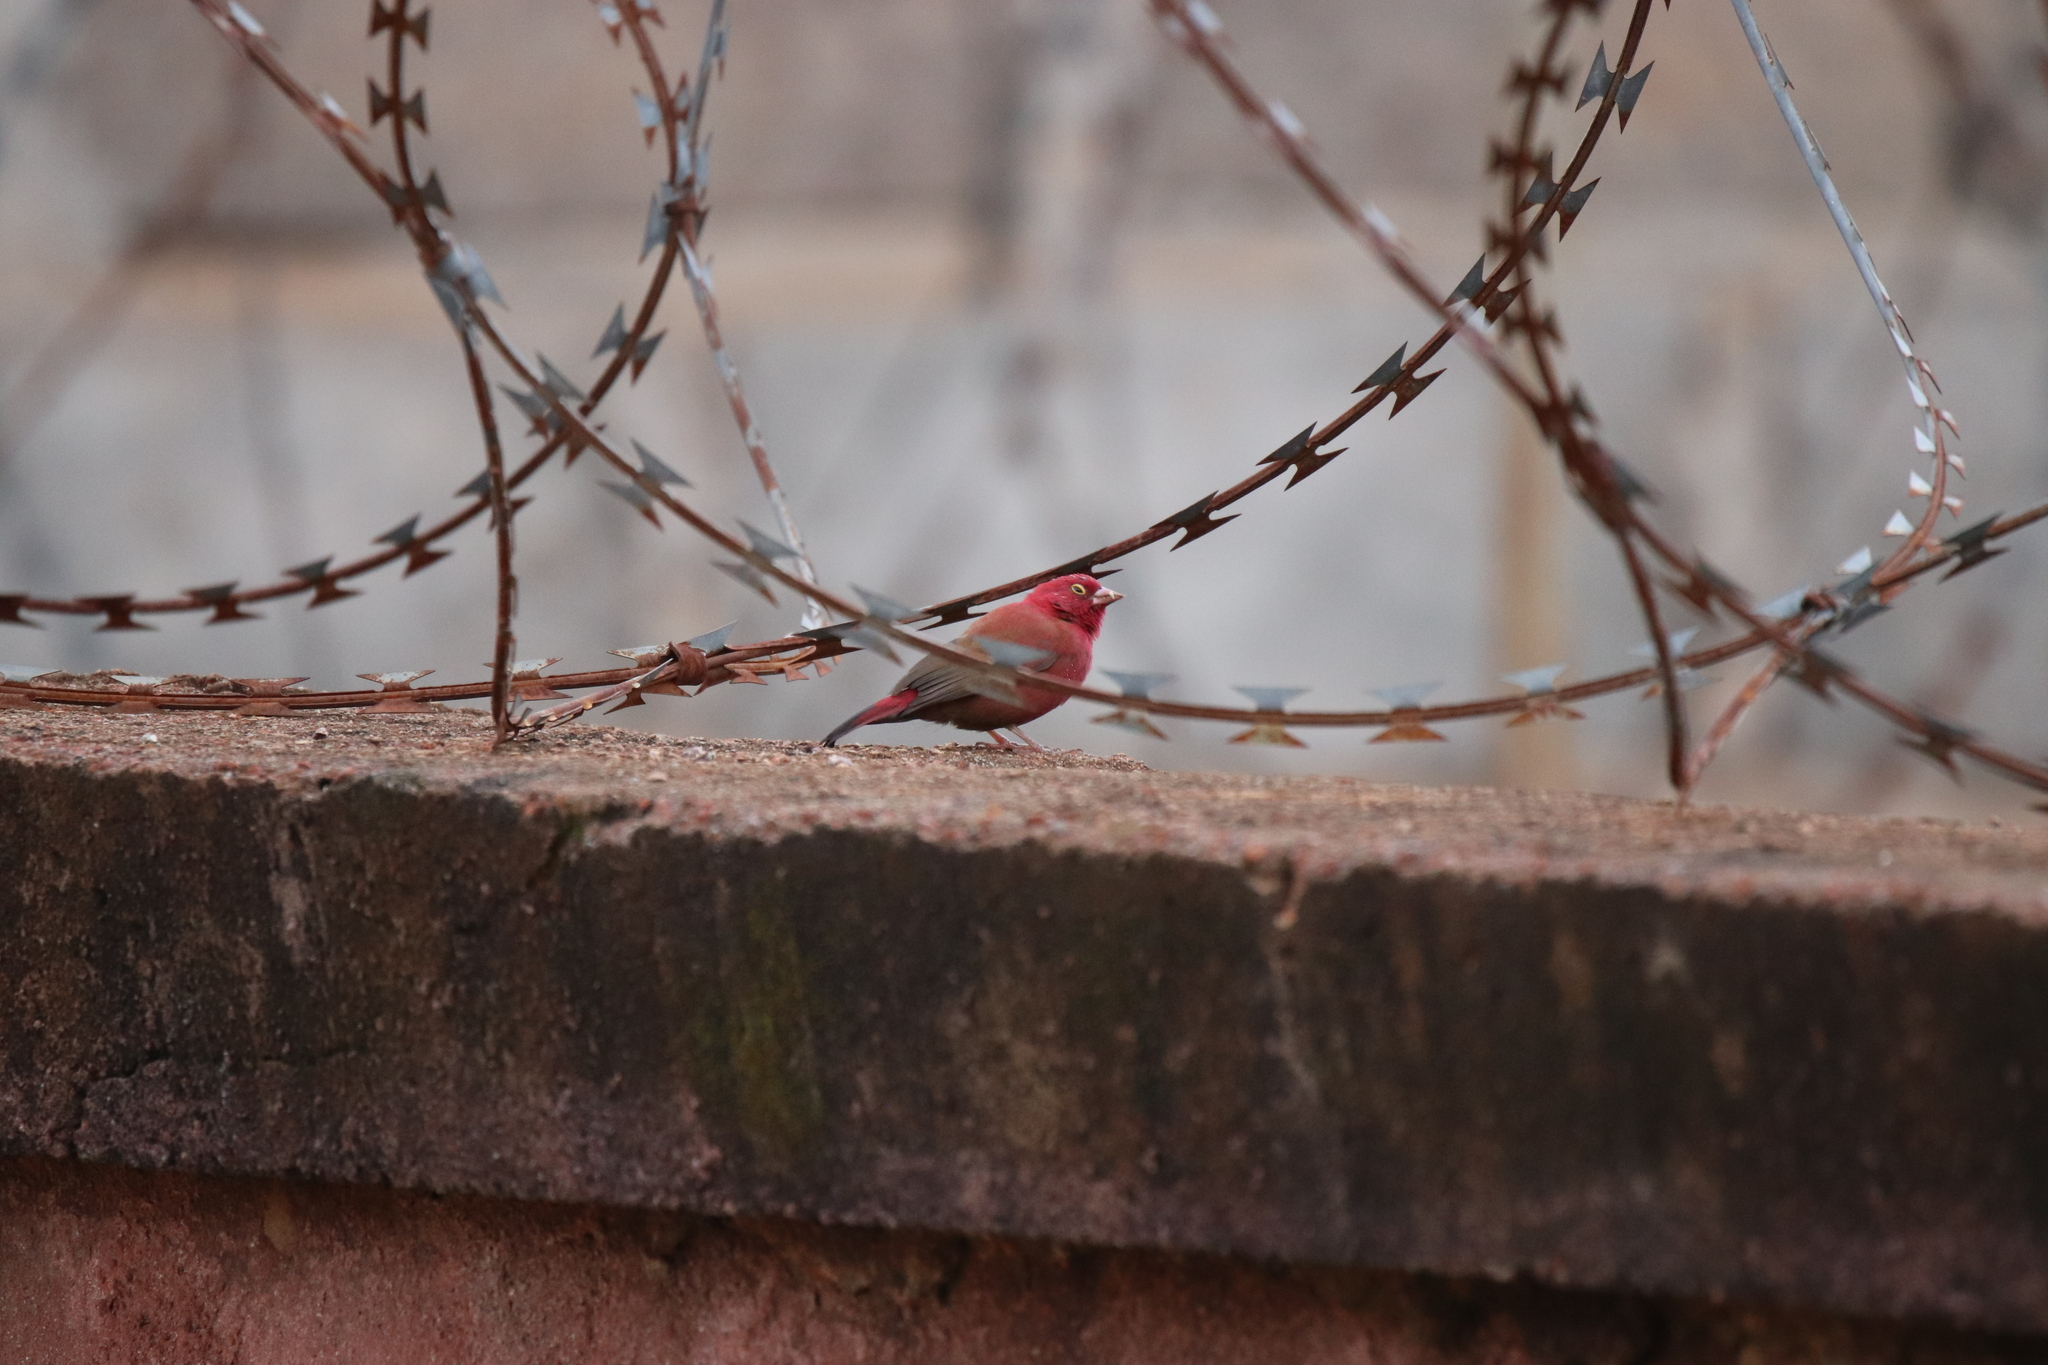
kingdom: Animalia
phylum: Chordata
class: Aves
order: Passeriformes
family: Estrildidae
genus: Lagonosticta
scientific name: Lagonosticta senegala
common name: Red-billed firefinch
